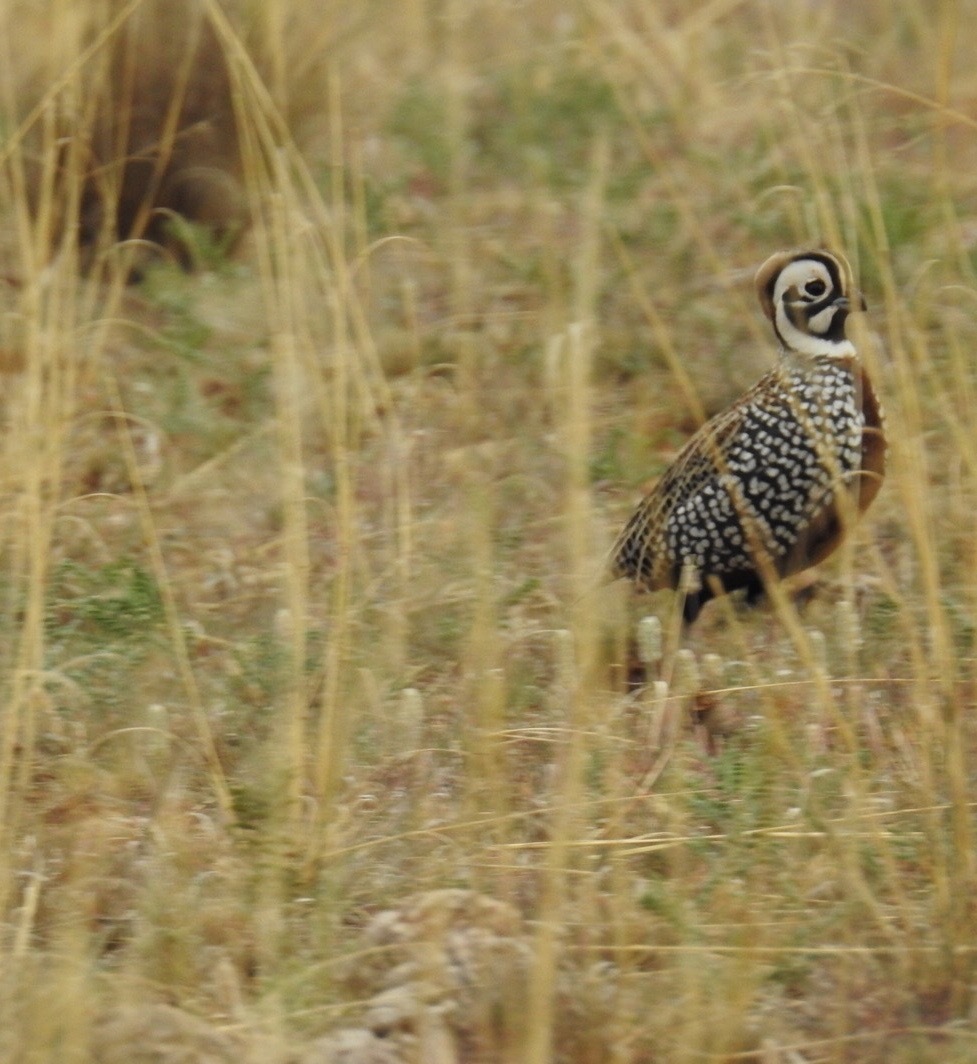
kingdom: Animalia
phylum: Chordata
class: Aves
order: Galliformes
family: Odontophoridae
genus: Cyrtonyx
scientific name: Cyrtonyx montezumae
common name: Montezuma quail
